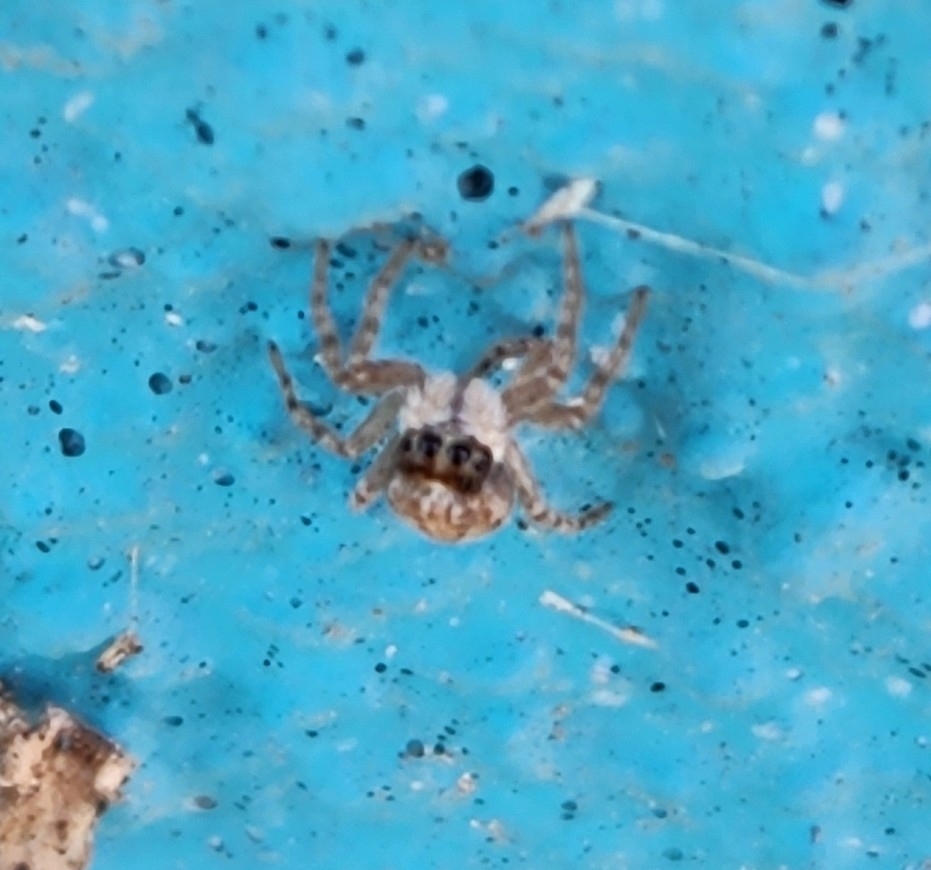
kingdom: Animalia
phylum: Arthropoda
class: Arachnida
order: Araneae
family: Salticidae
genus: Menemerus
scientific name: Menemerus semilimbatus
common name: Jumping spider
